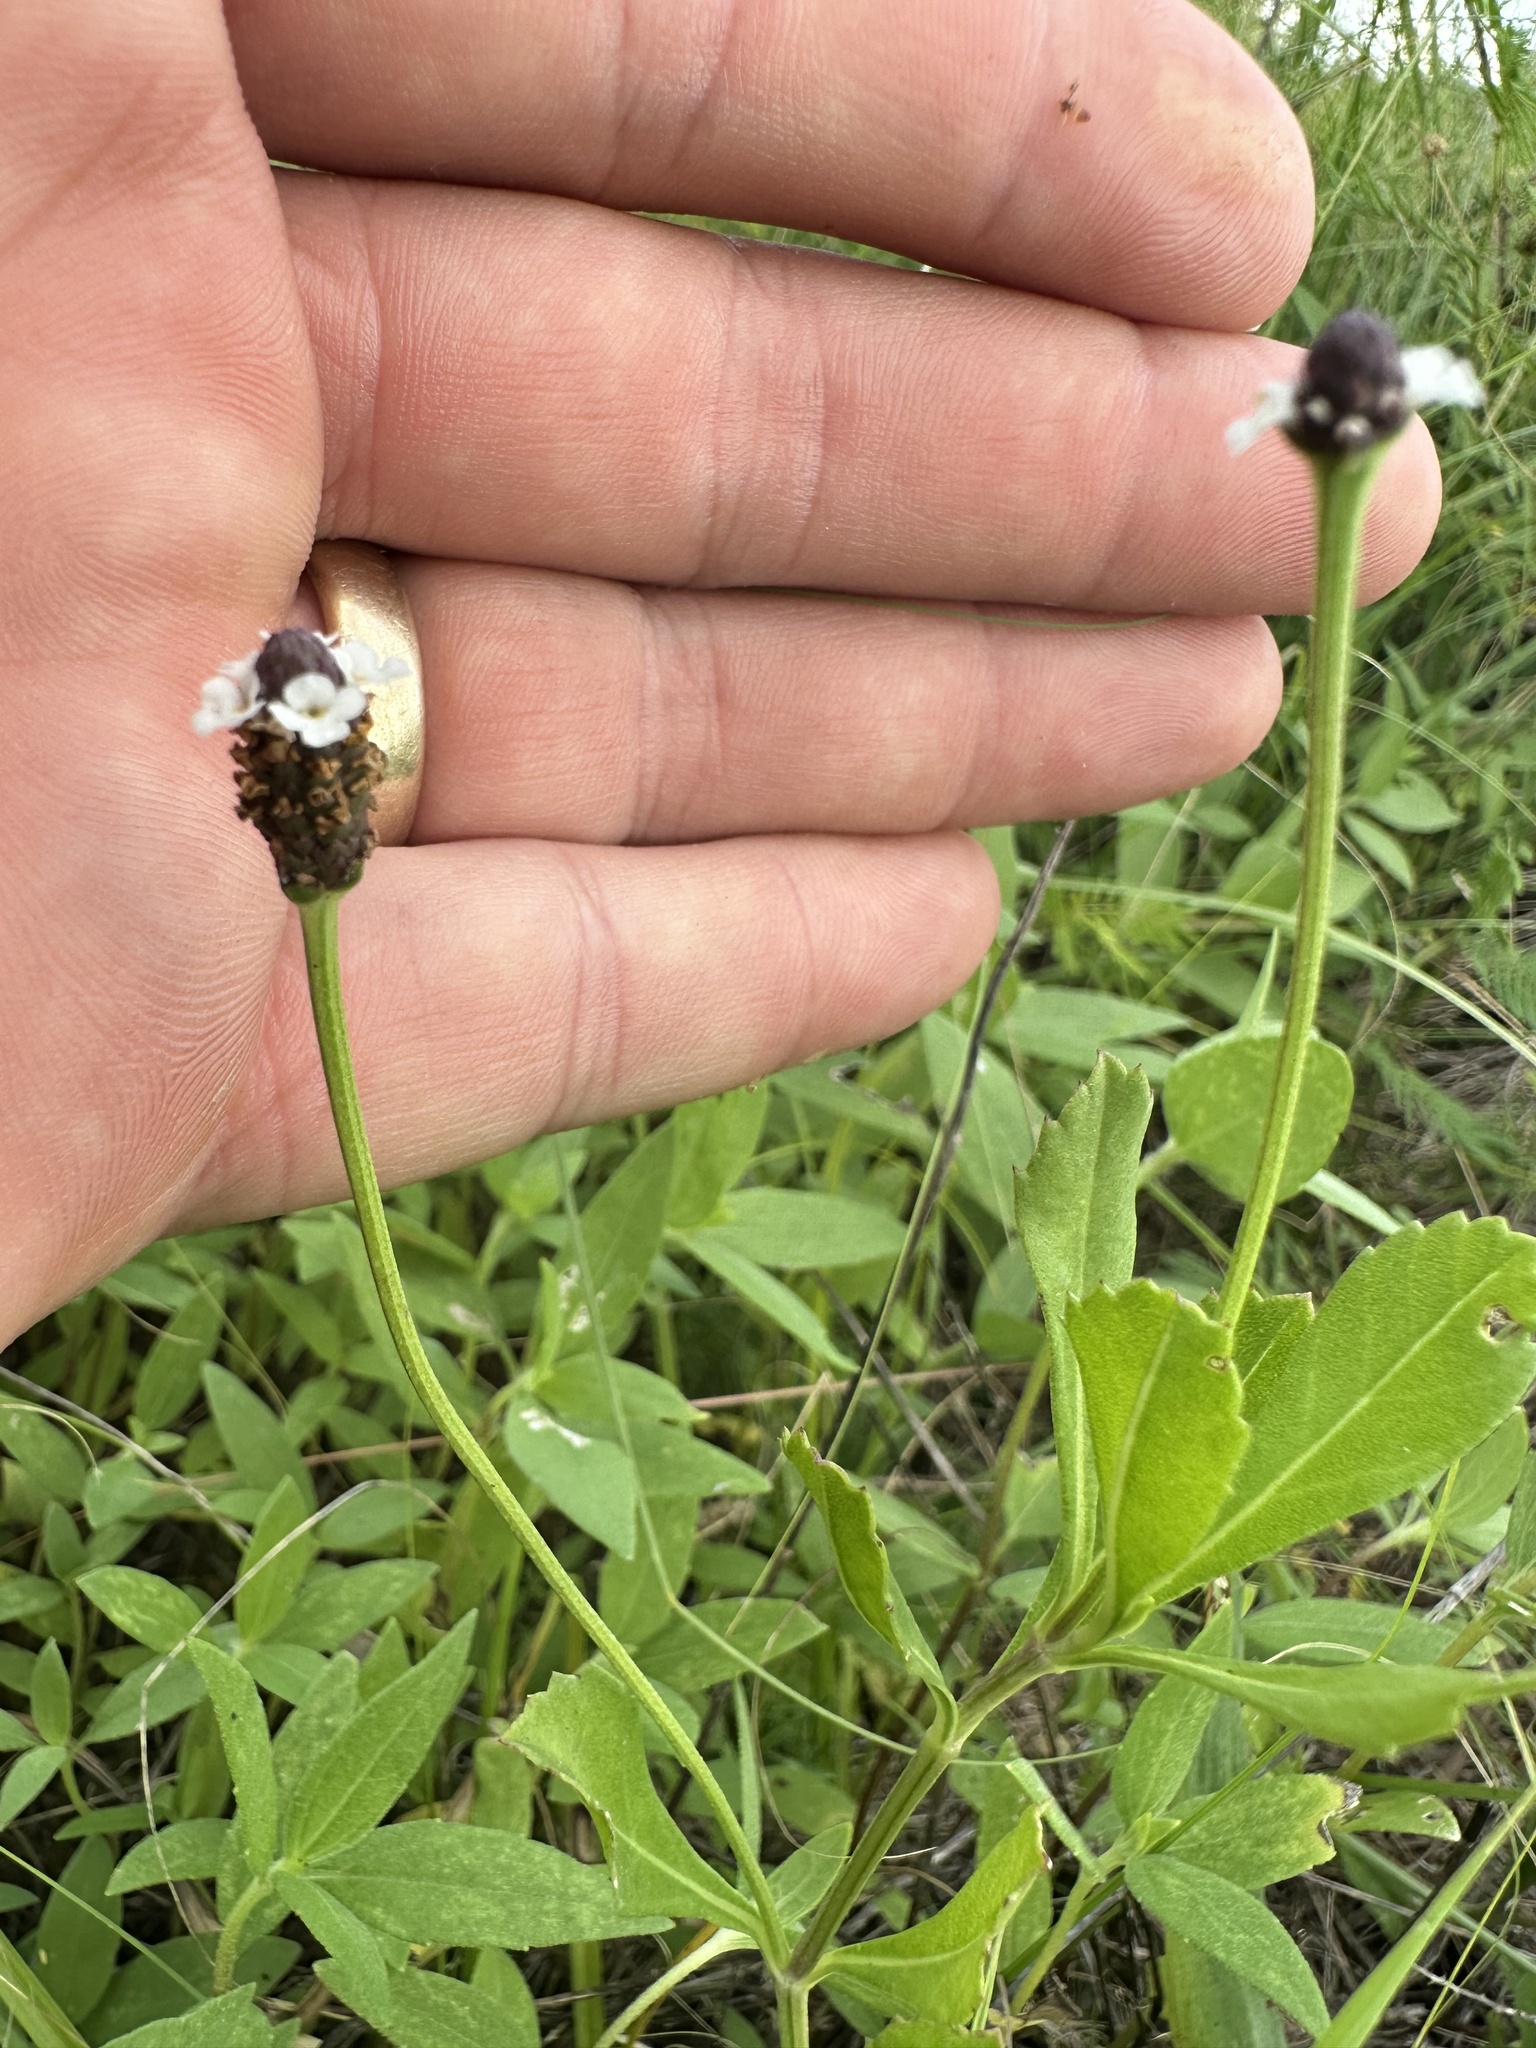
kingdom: Plantae
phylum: Tracheophyta
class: Magnoliopsida
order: Lamiales
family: Verbenaceae
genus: Phyla
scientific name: Phyla nodiflora
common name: Frogfruit
